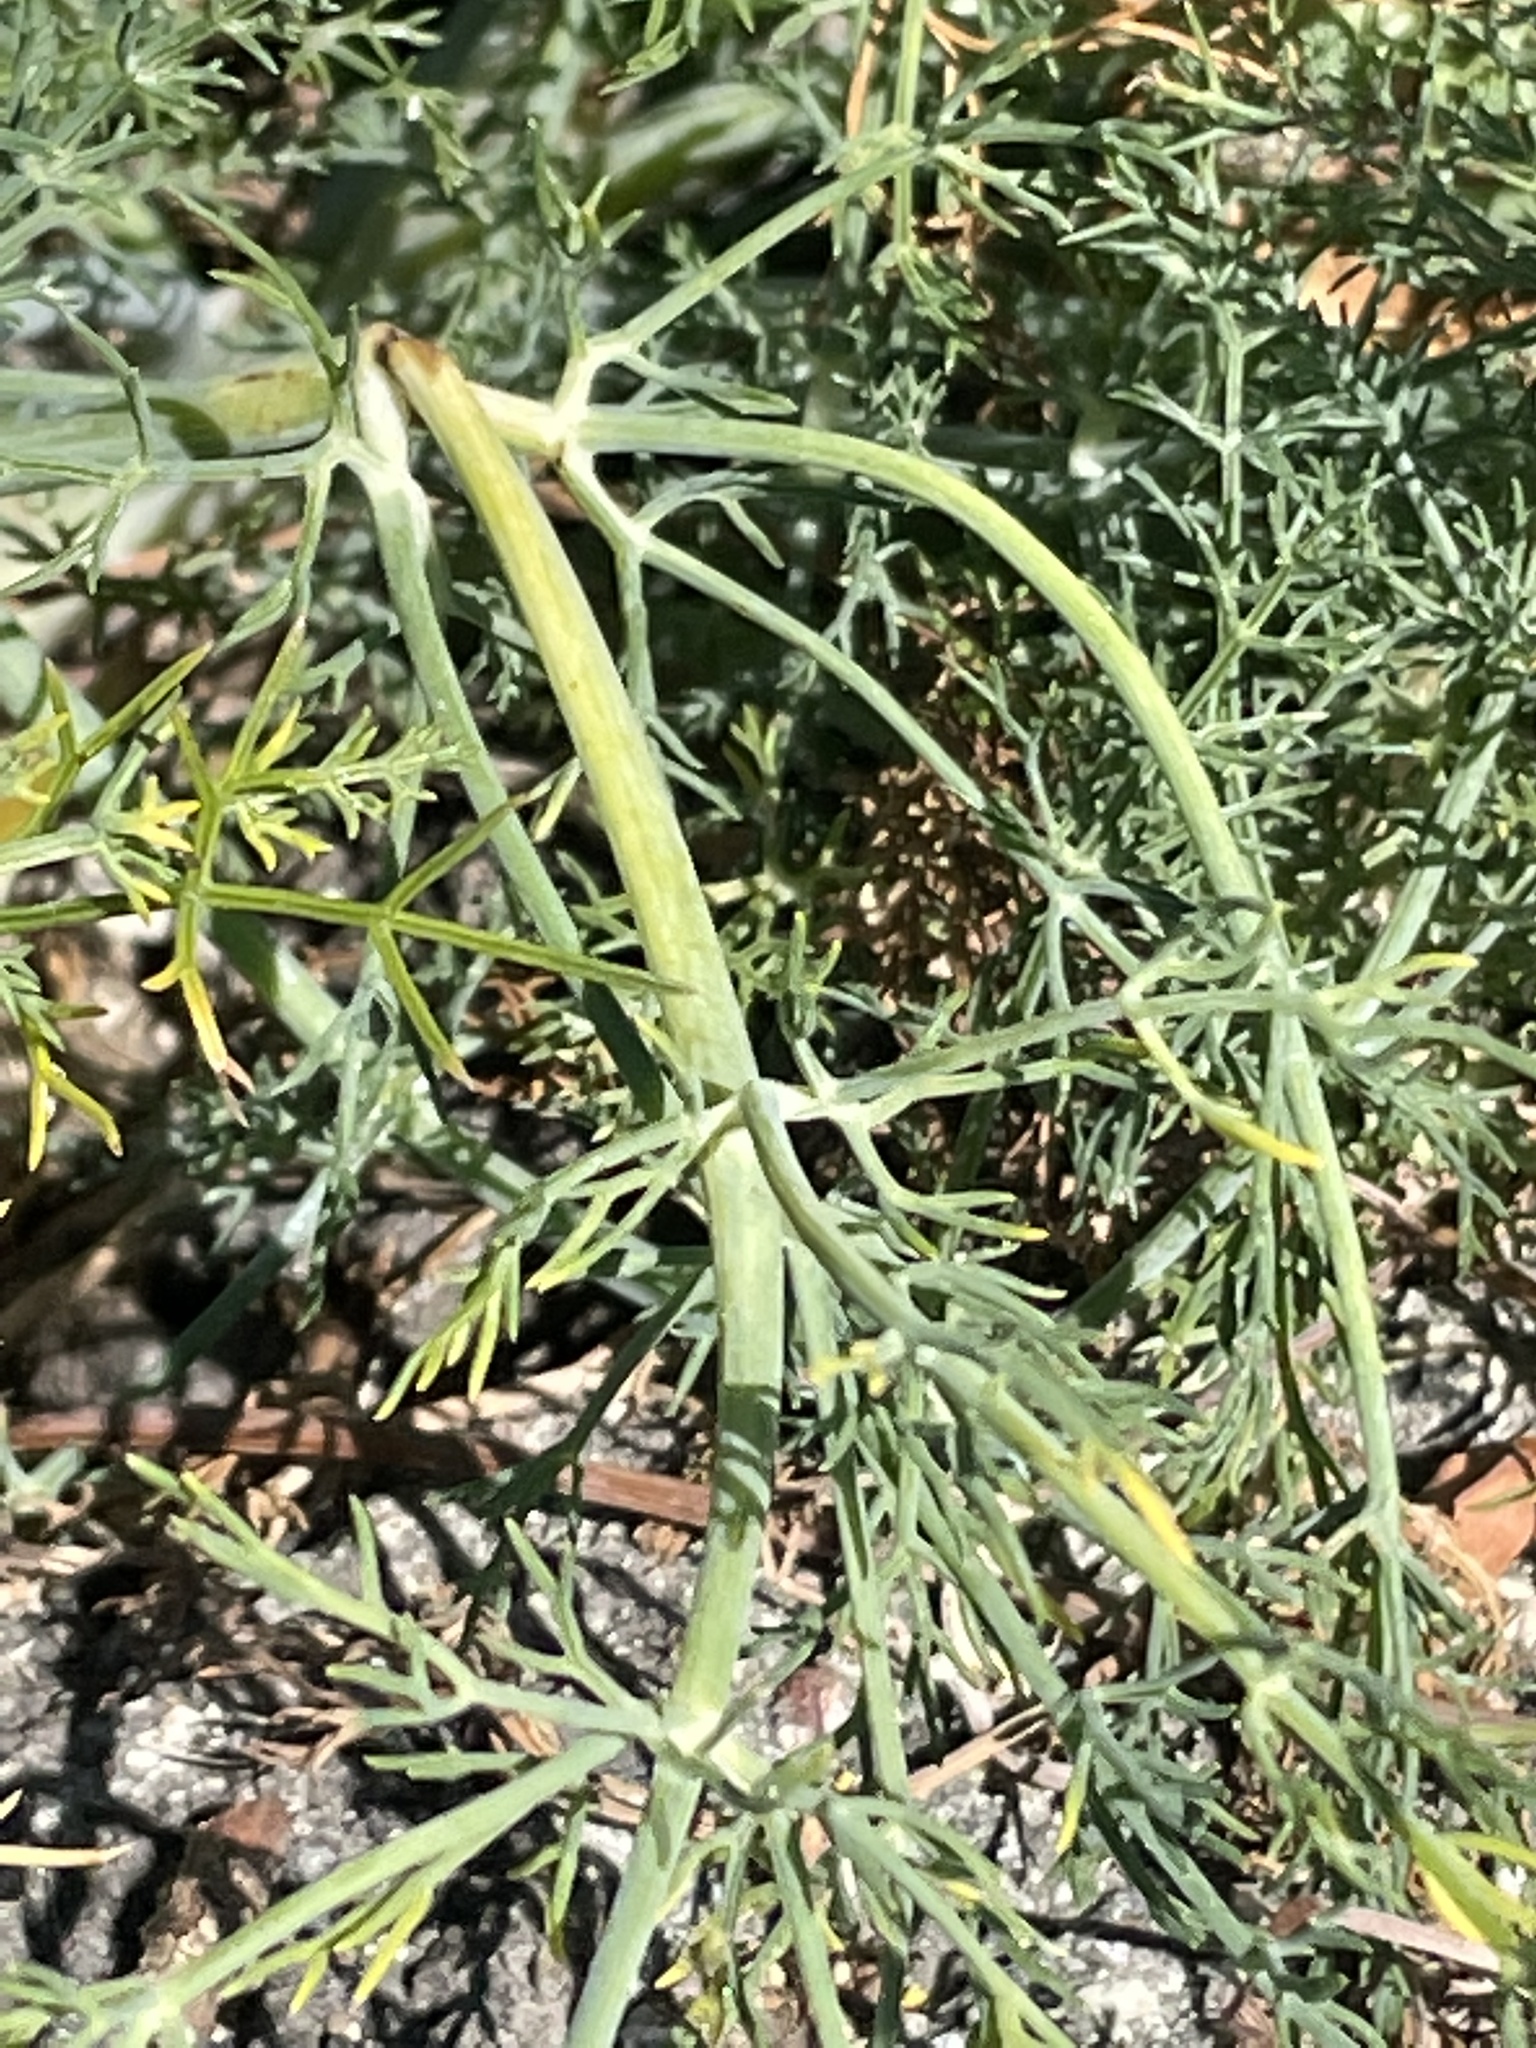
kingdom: Plantae
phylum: Tracheophyta
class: Magnoliopsida
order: Apiales
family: Apiaceae
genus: Foeniculum
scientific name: Foeniculum vulgare
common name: Fennel
